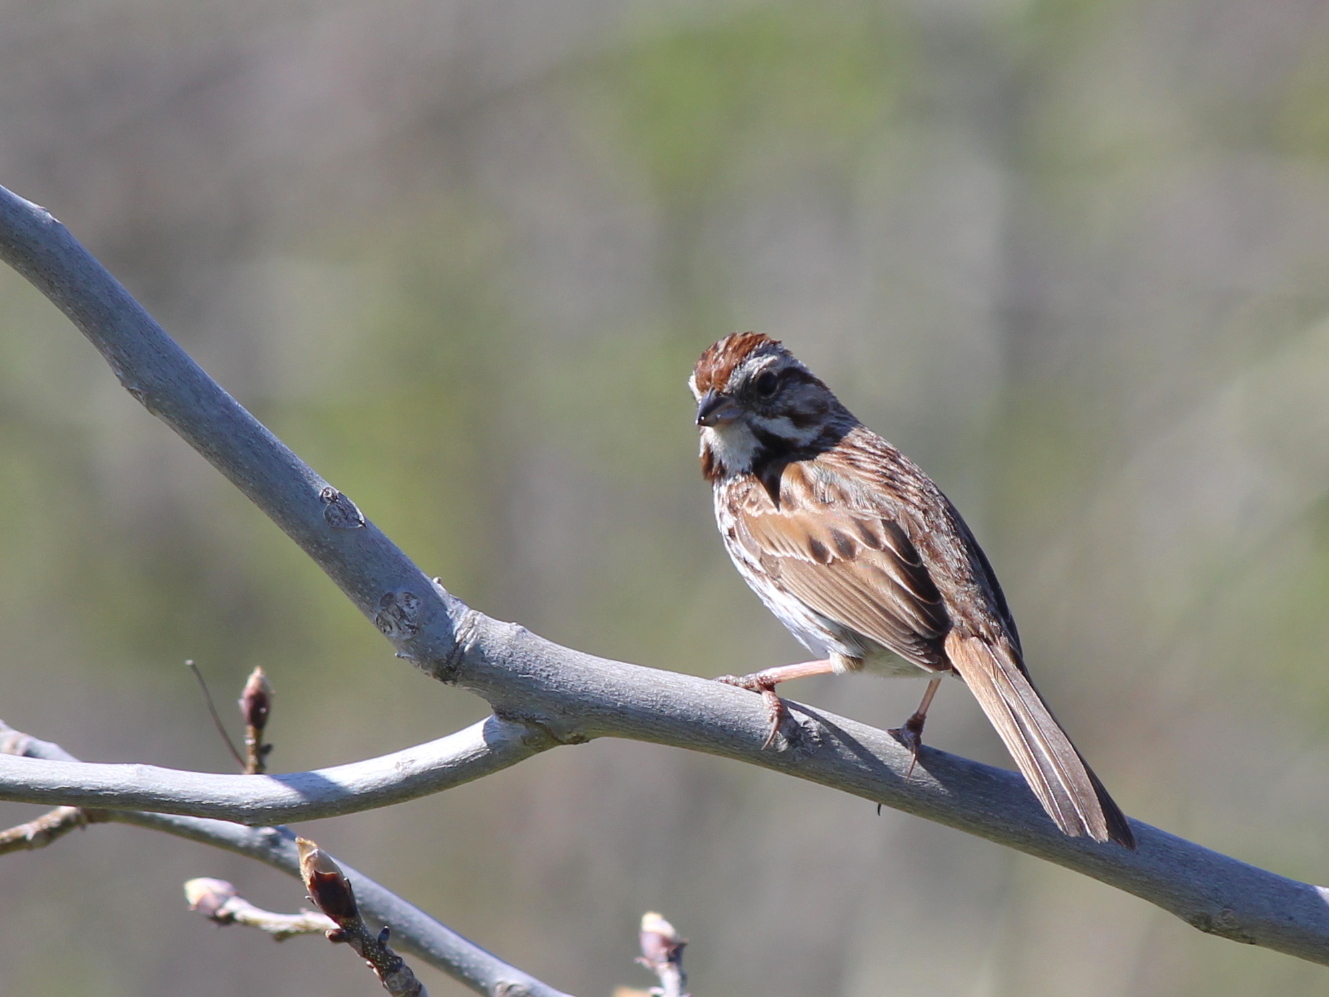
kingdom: Animalia
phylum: Chordata
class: Aves
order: Passeriformes
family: Passerellidae
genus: Melospiza
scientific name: Melospiza melodia
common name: Song sparrow
